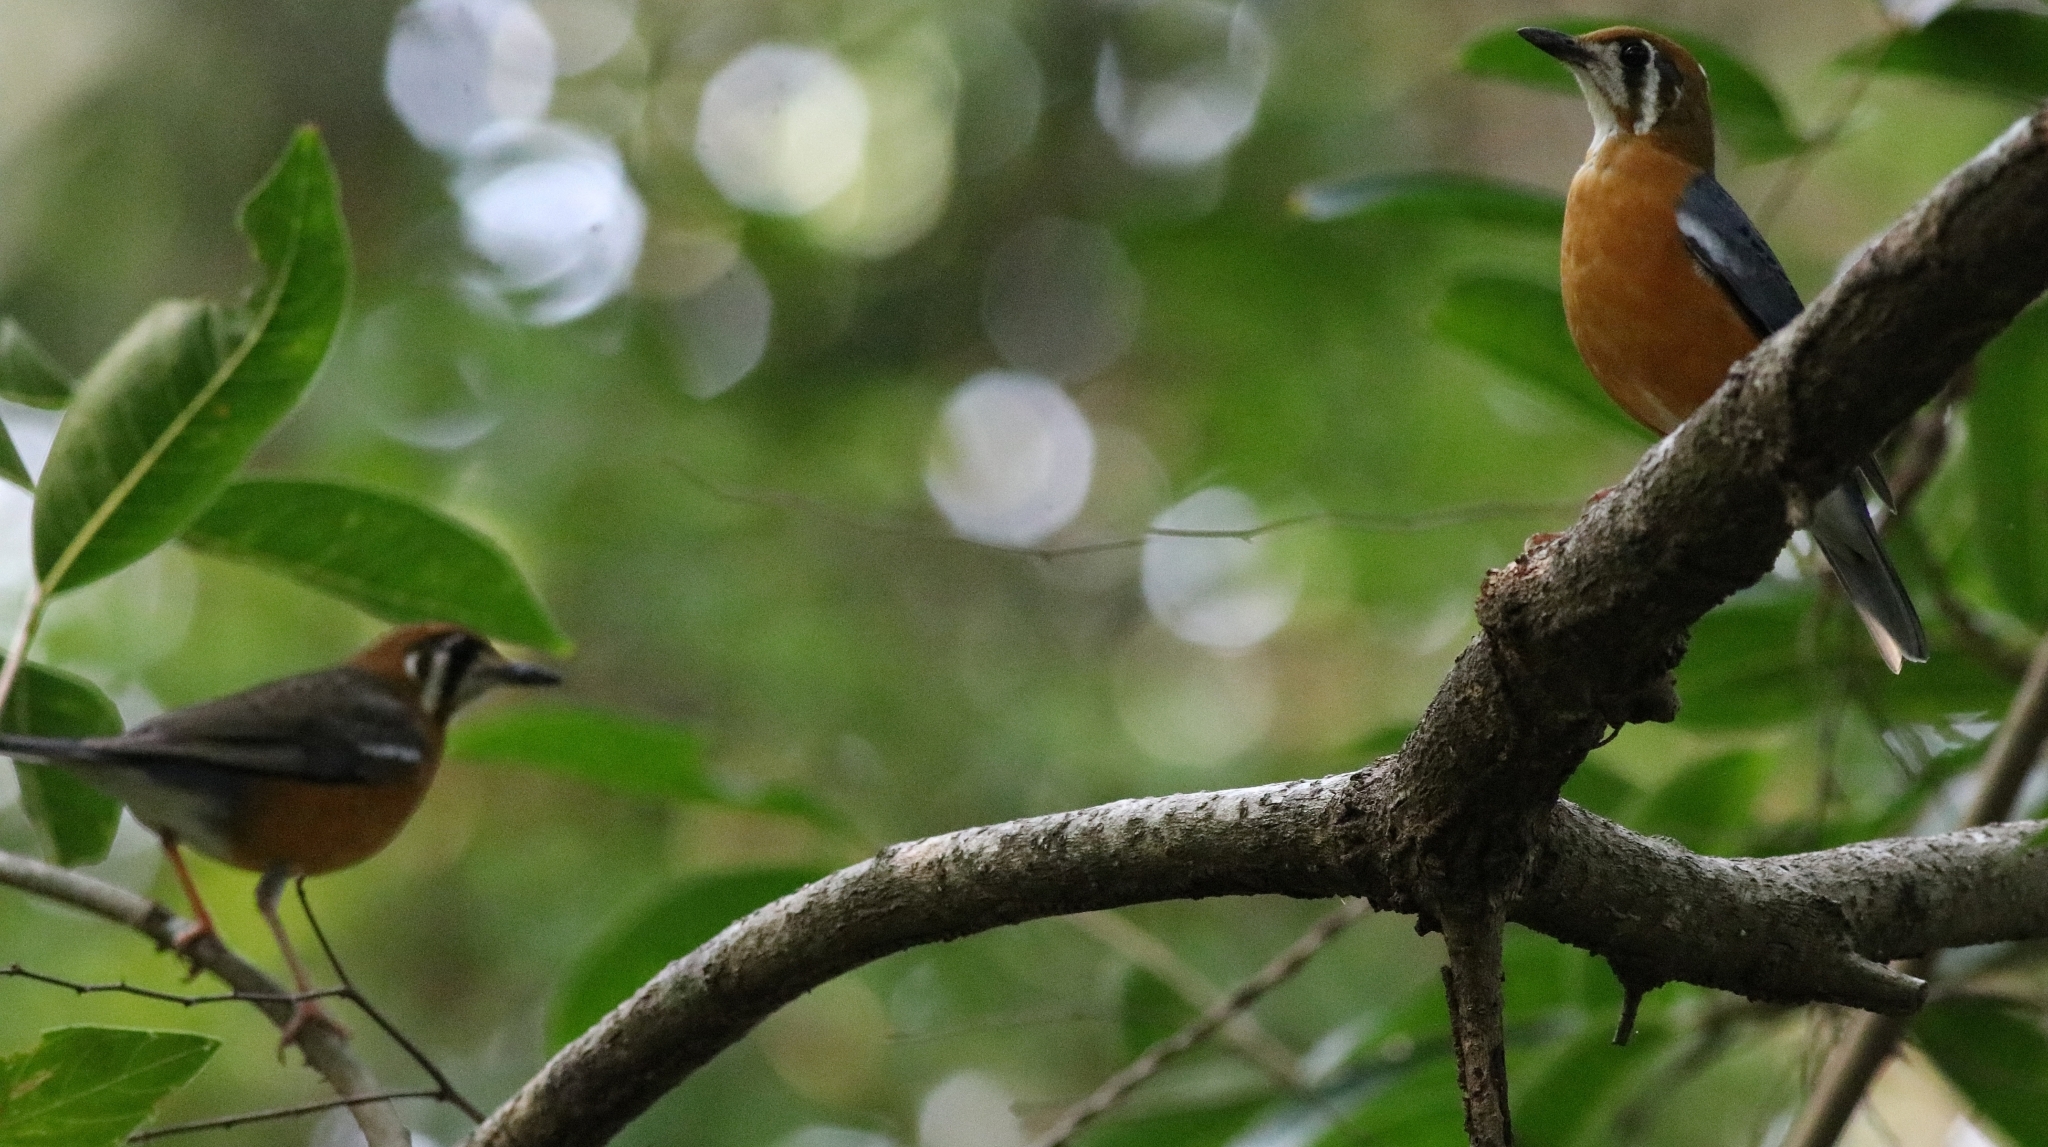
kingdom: Animalia
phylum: Chordata
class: Aves
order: Passeriformes
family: Turdidae
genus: Geokichla
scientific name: Geokichla citrina
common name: Orange-headed thrush
